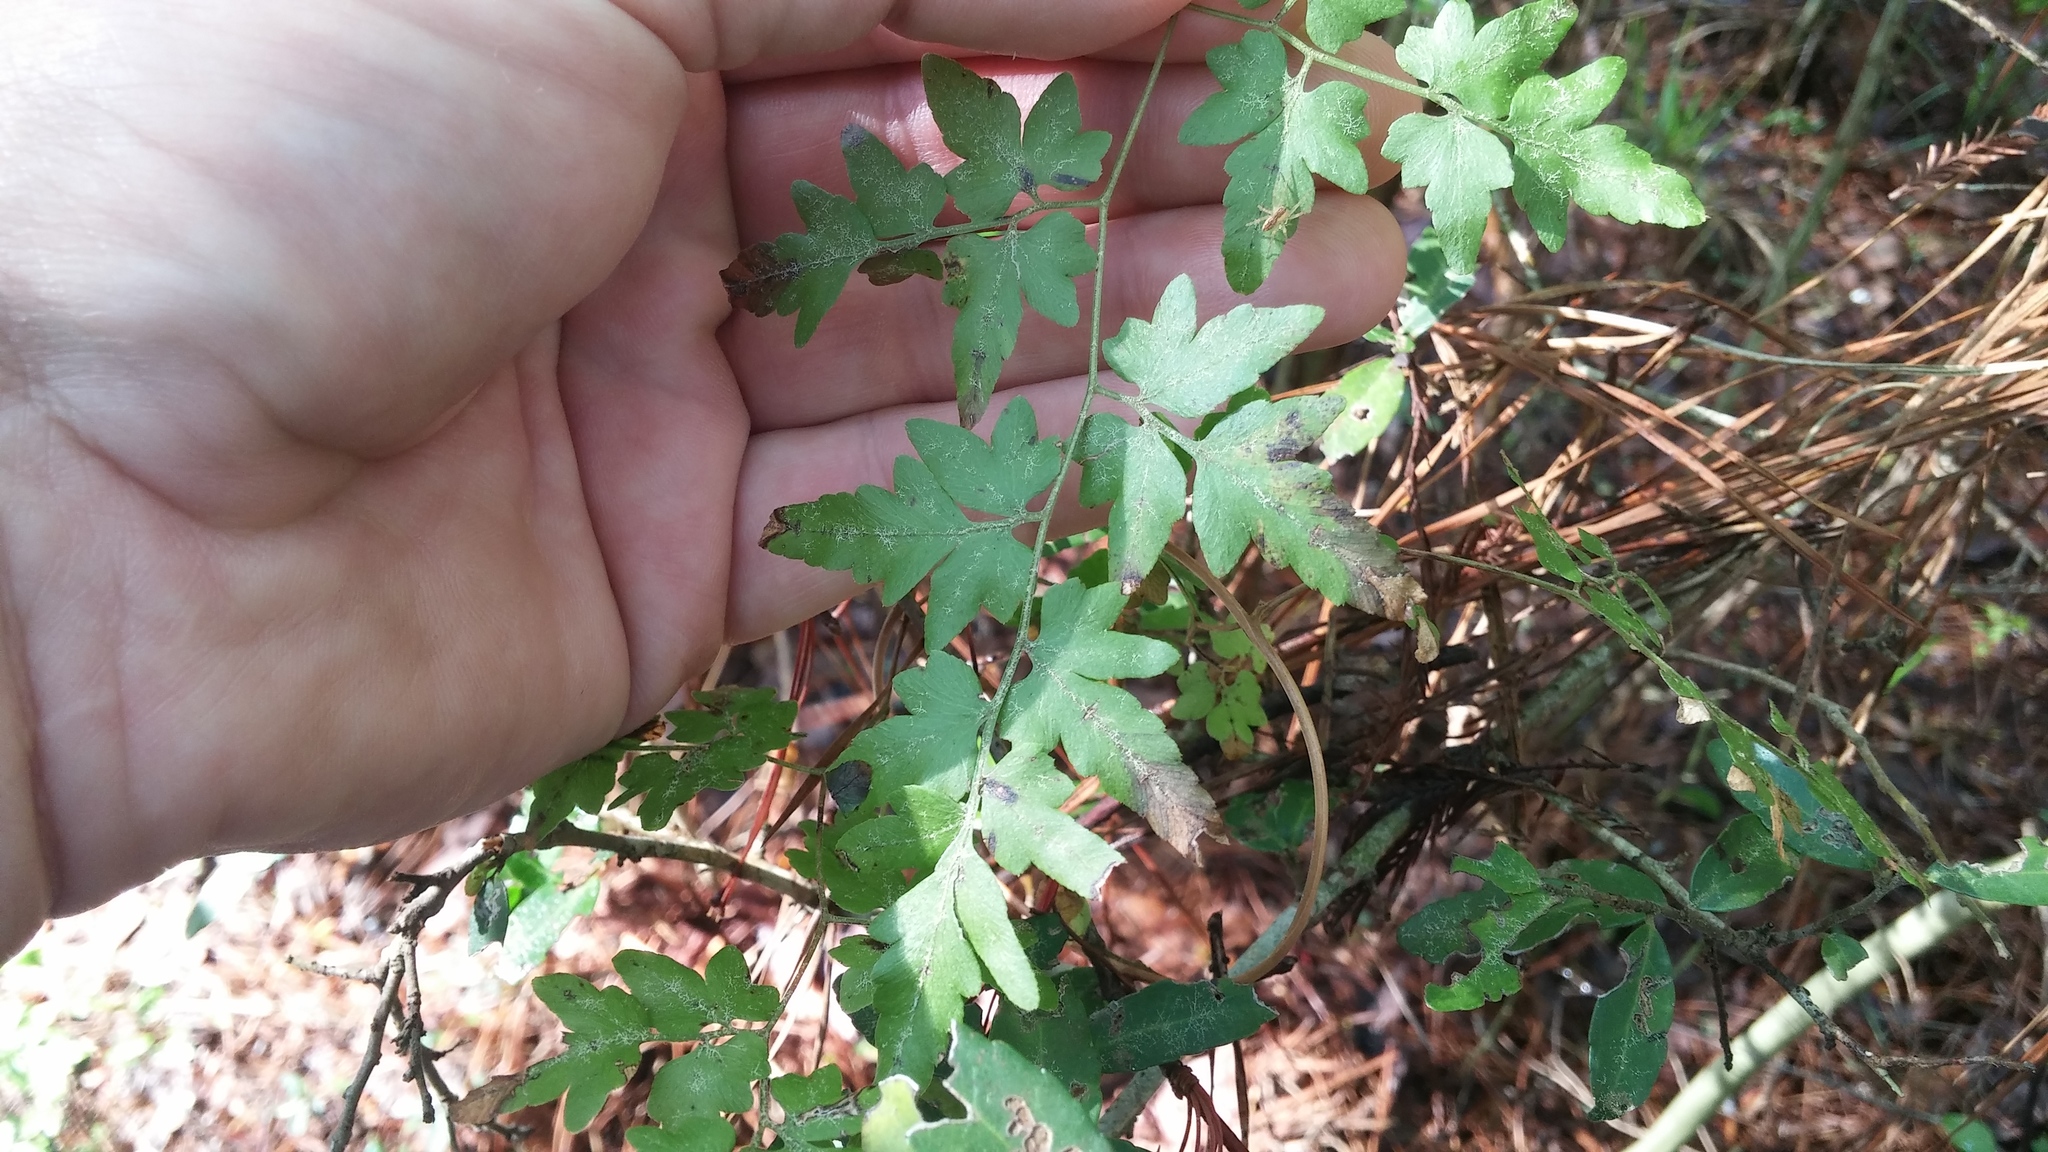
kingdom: Plantae
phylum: Tracheophyta
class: Polypodiopsida
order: Schizaeales
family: Lygodiaceae
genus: Lygodium
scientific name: Lygodium japonicum
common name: Japanese climbing fern
